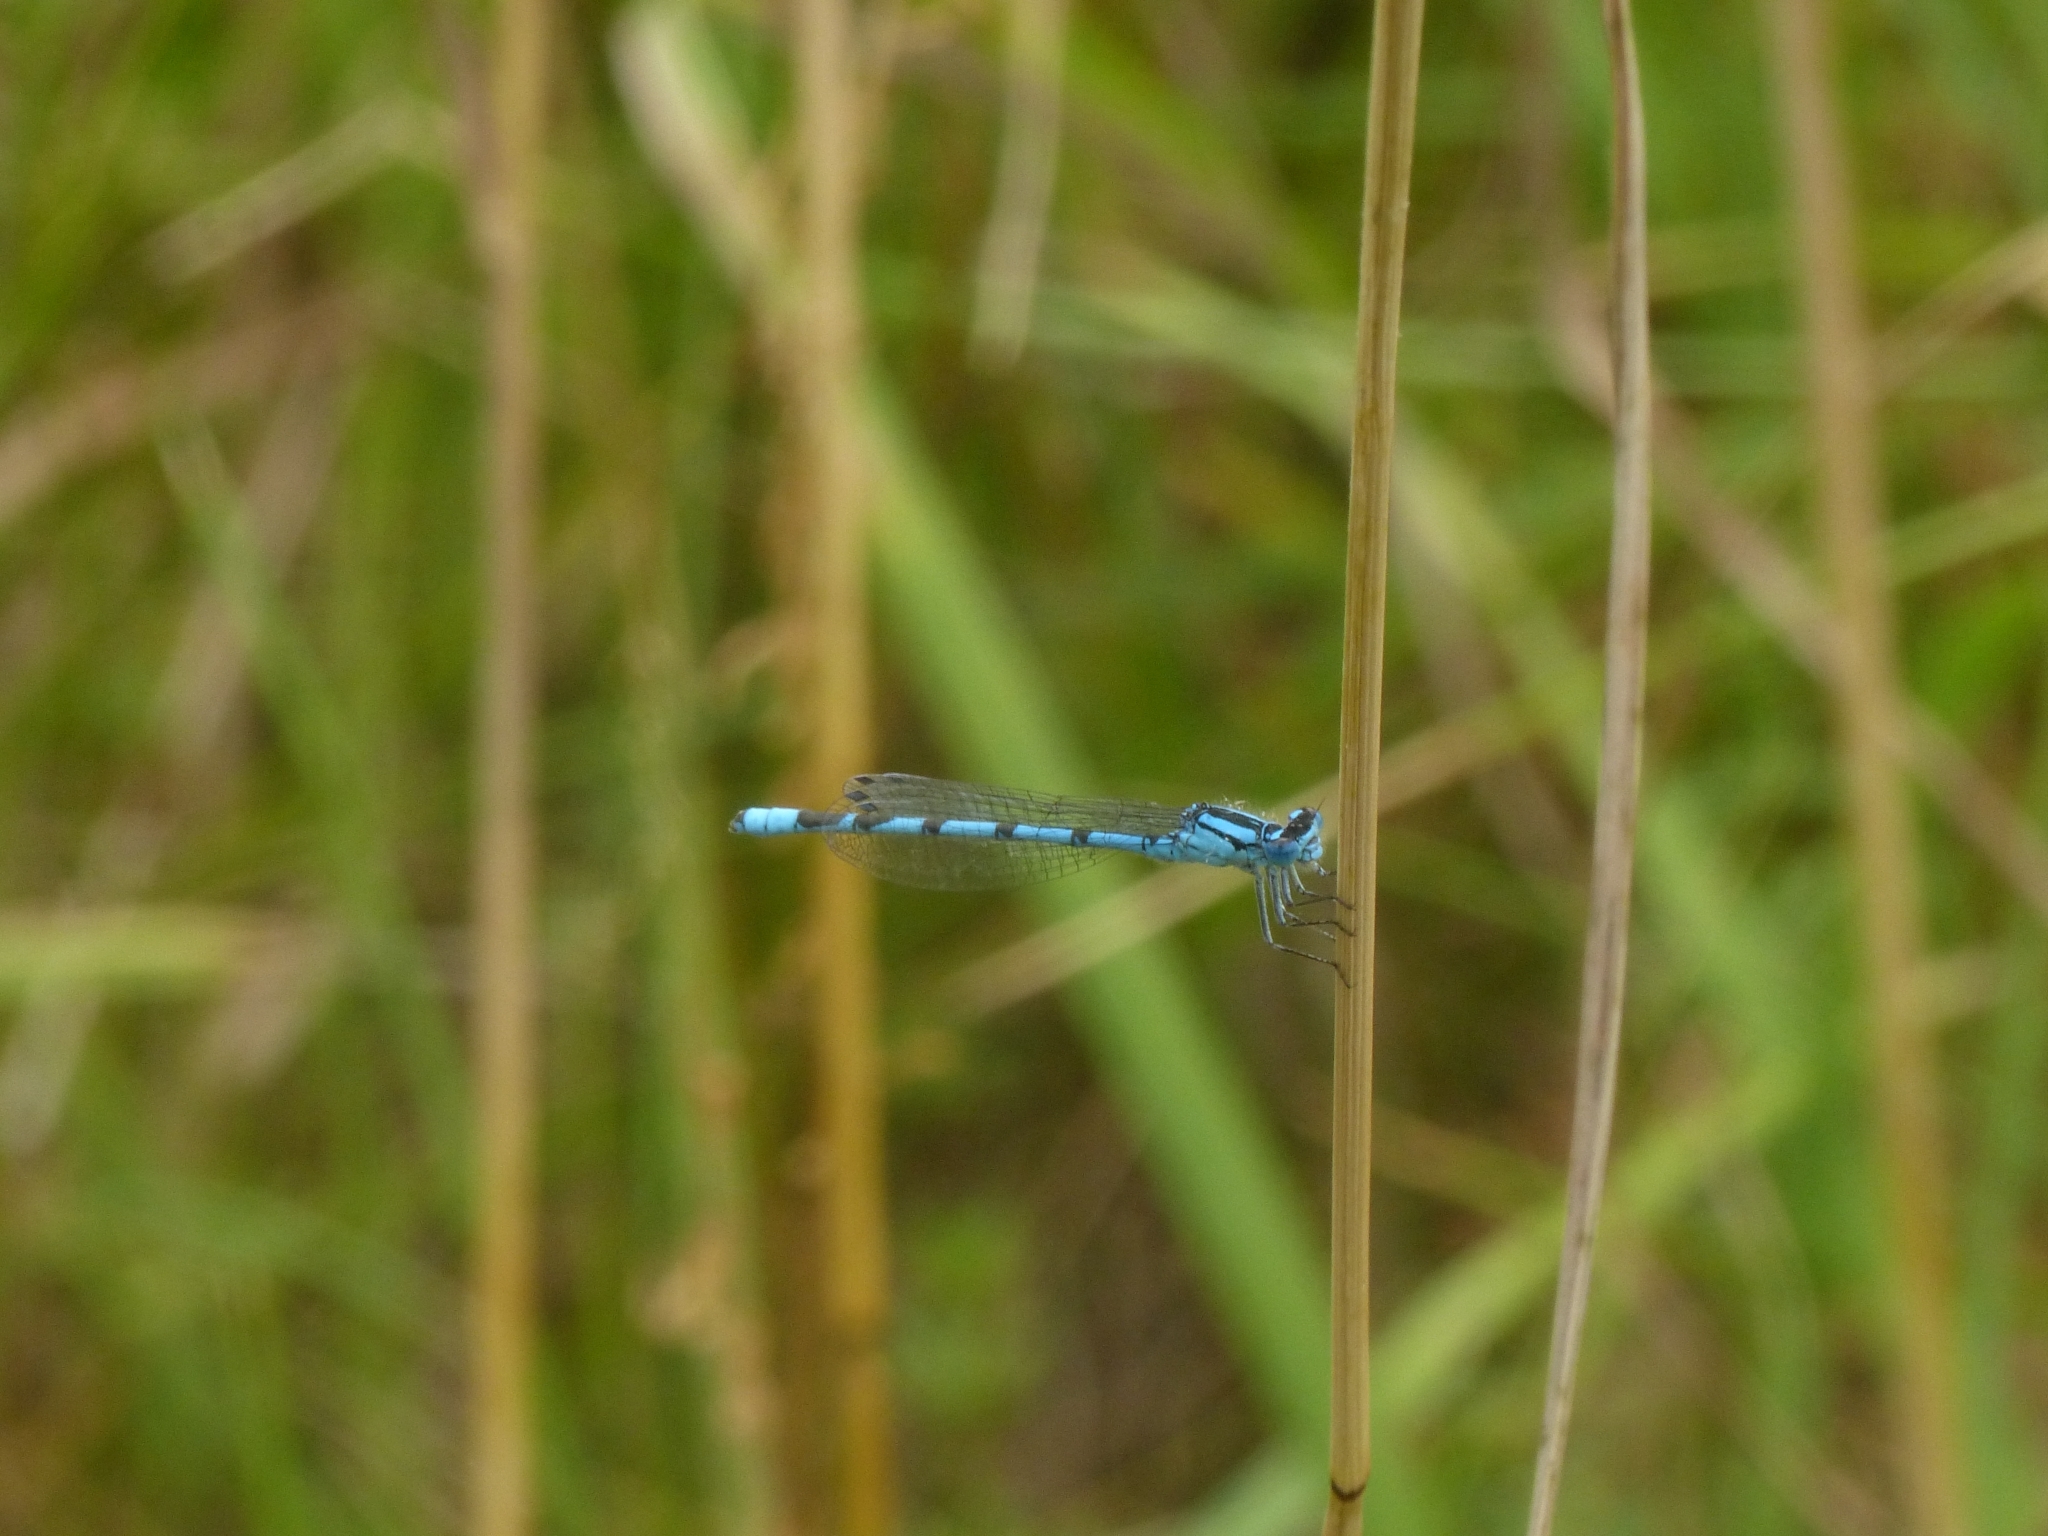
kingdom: Animalia
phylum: Arthropoda
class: Insecta
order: Odonata
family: Coenagrionidae
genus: Enallagma
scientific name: Enallagma cyathigerum
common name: Common blue damselfly
